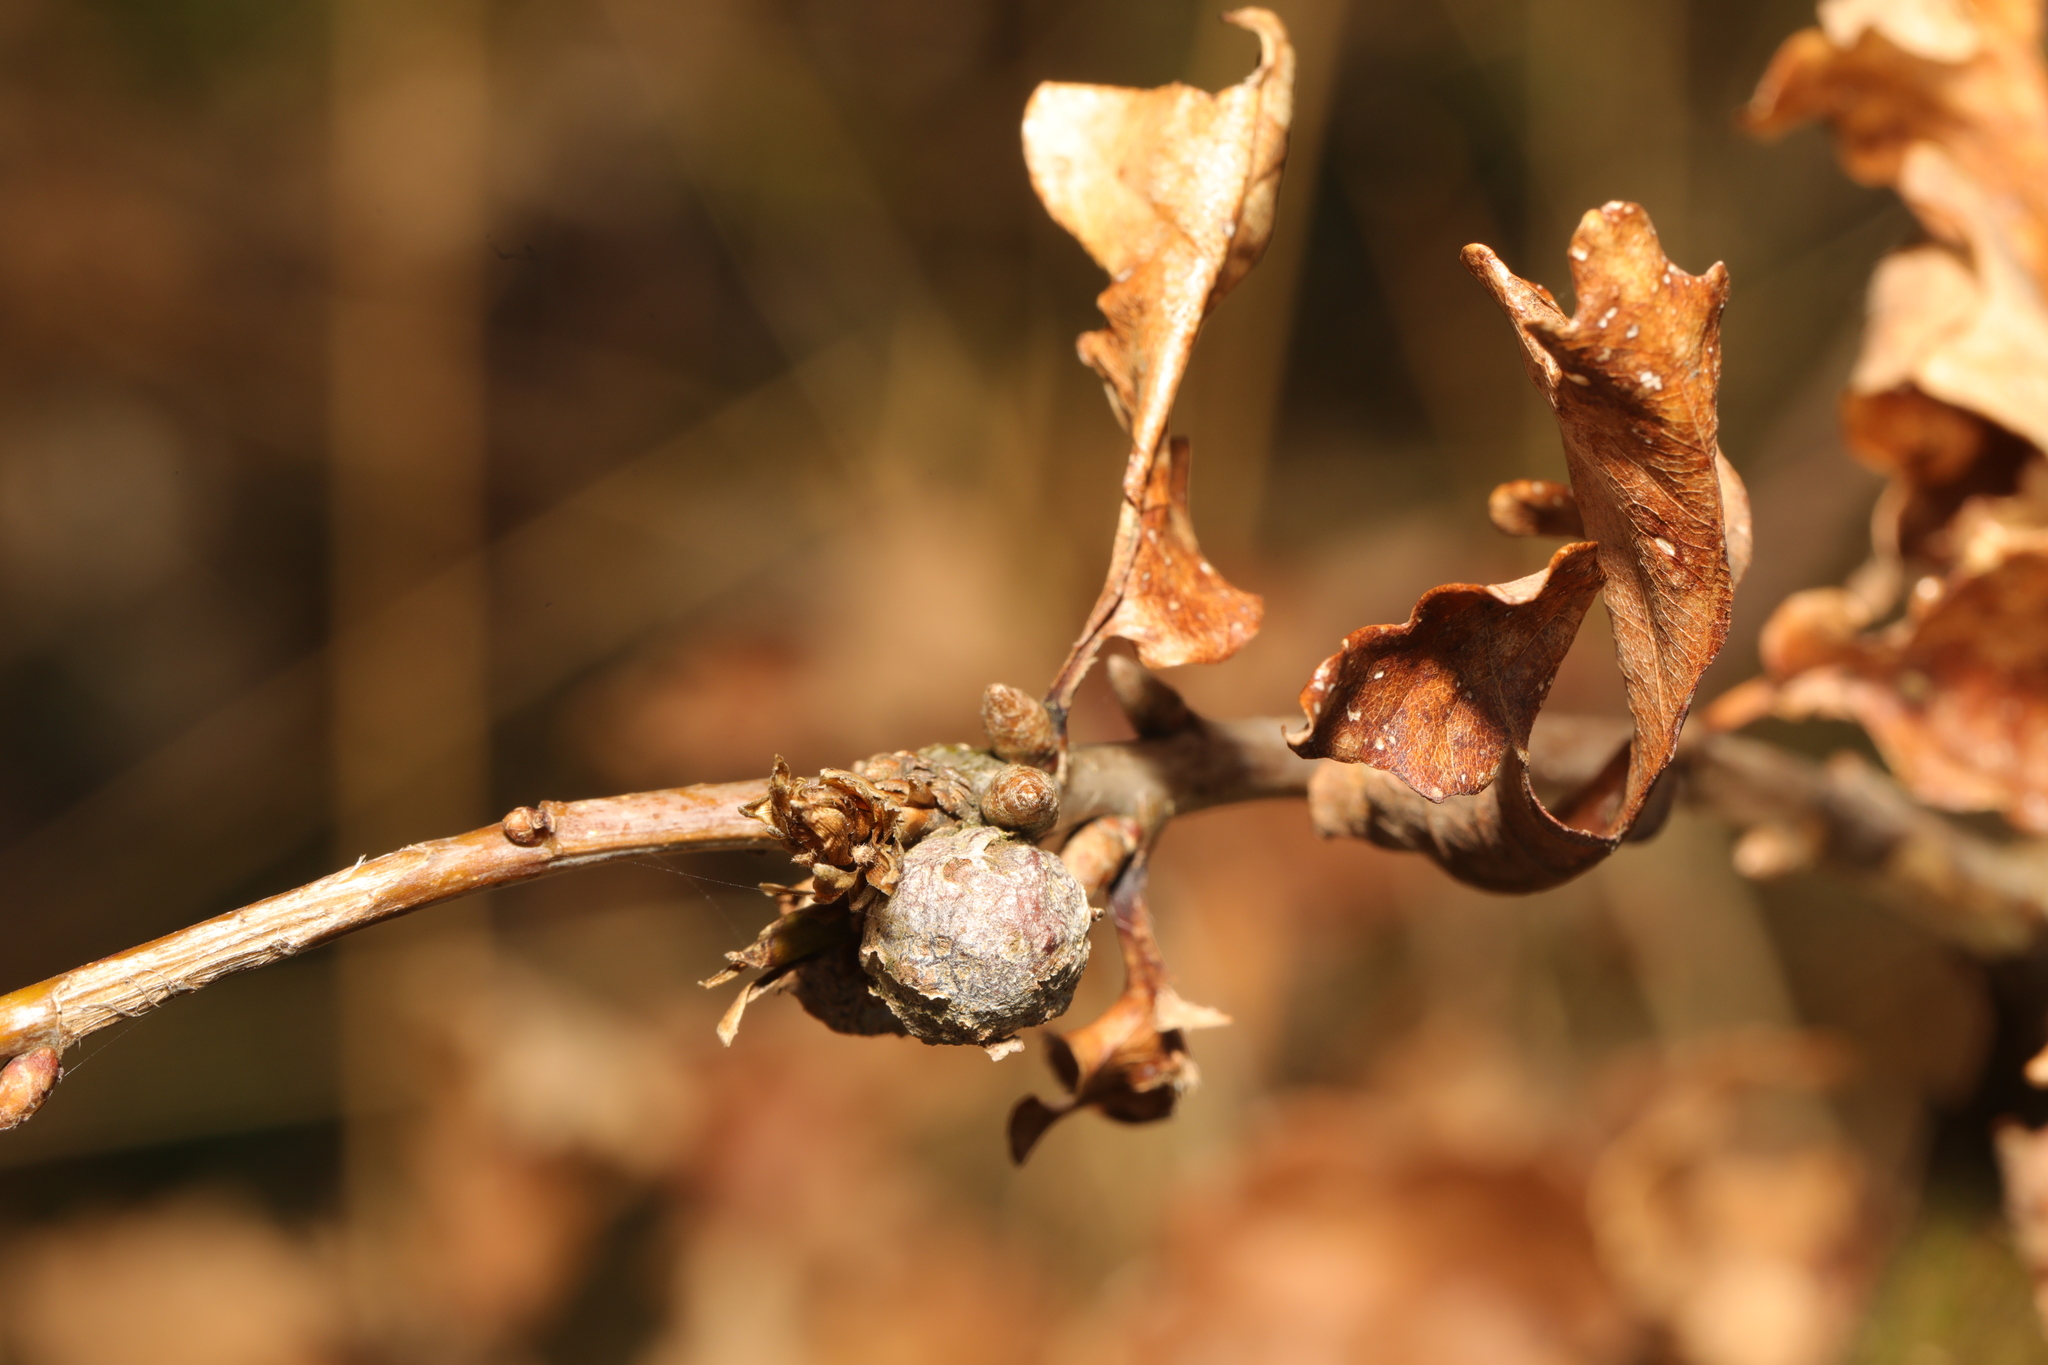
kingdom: Animalia
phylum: Arthropoda
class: Insecta
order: Hymenoptera
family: Cynipidae
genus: Andricus
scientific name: Andricus lignicolus
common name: Cola-nut gall
